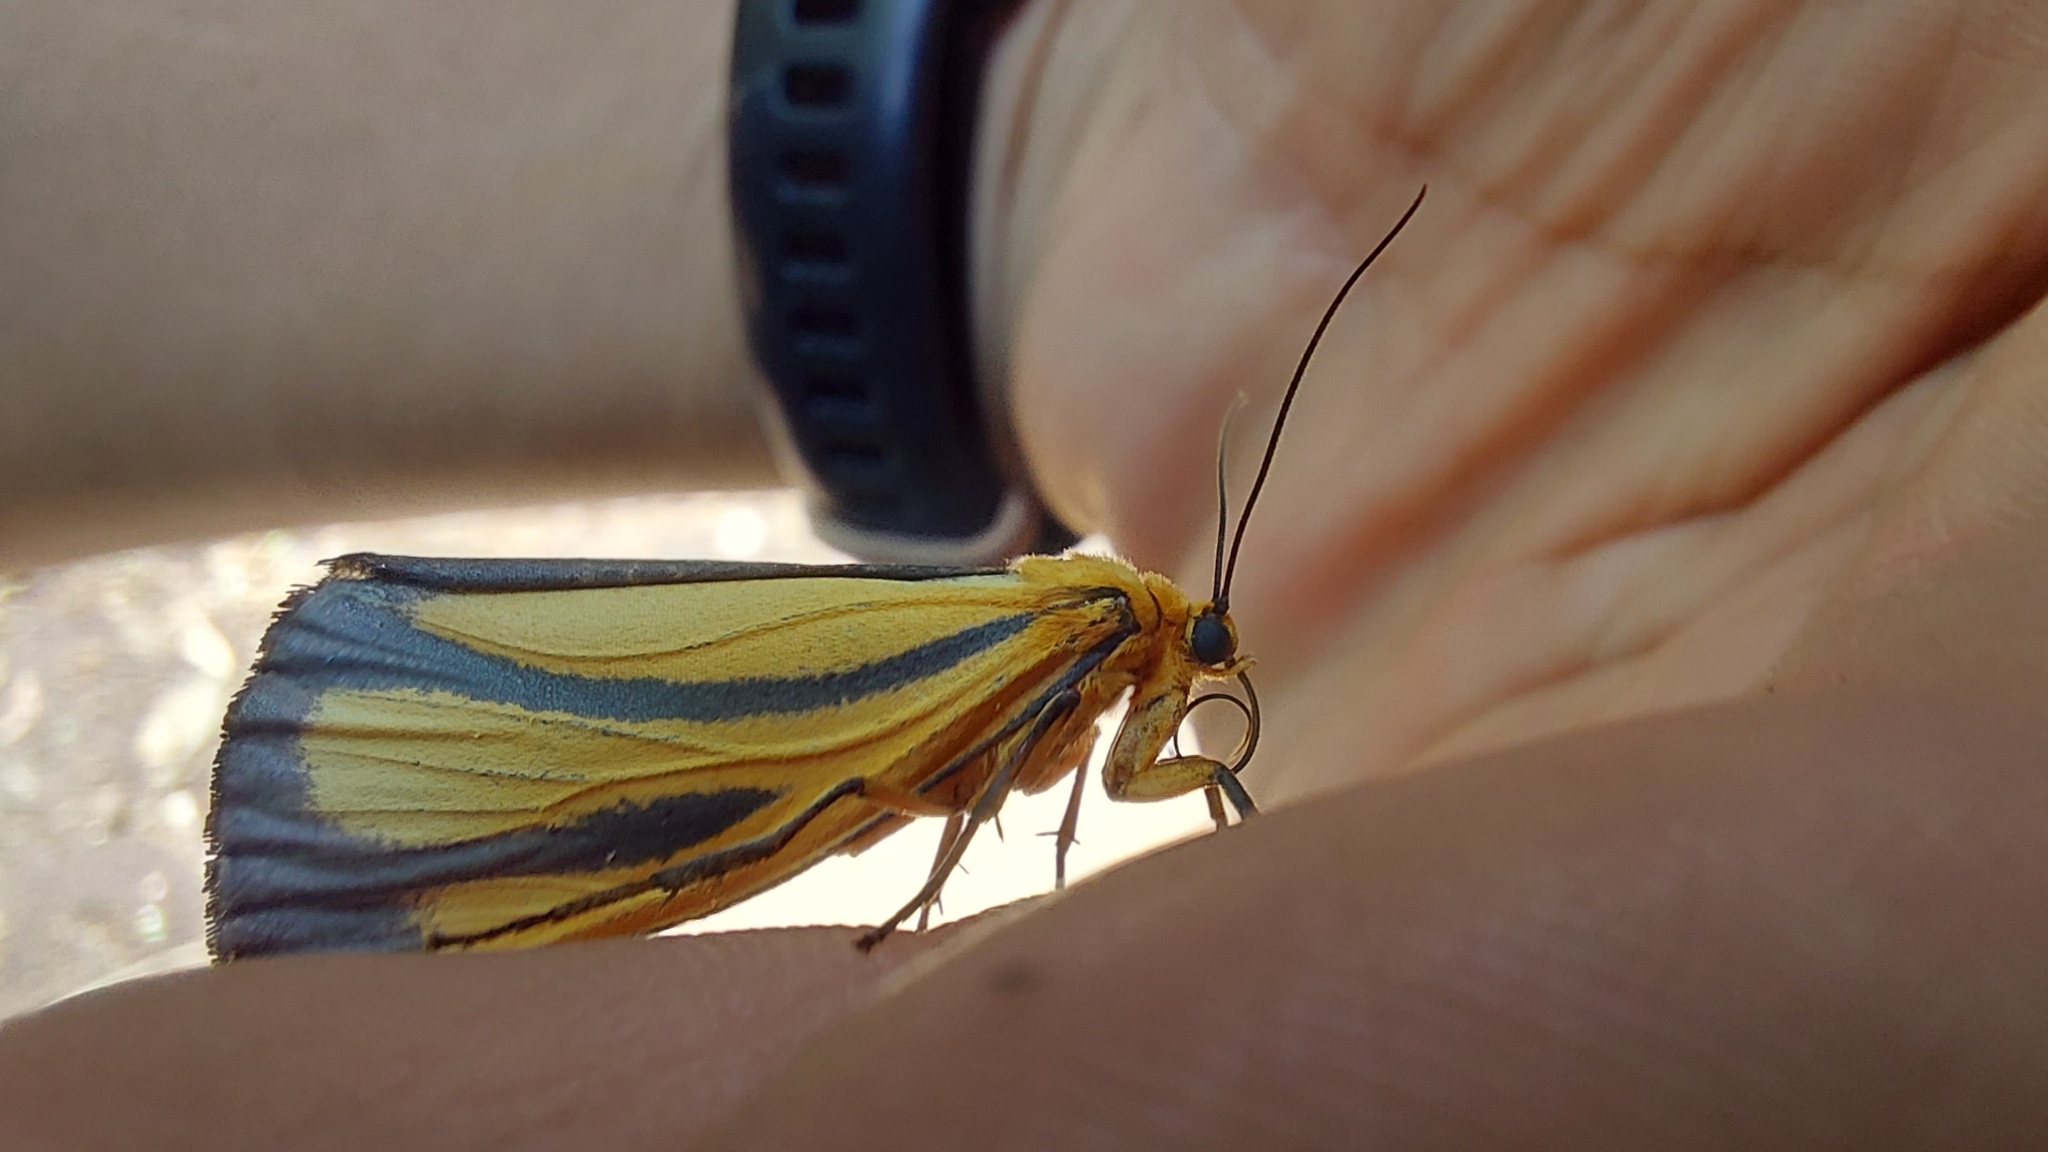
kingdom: Animalia
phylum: Arthropoda
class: Insecta
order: Lepidoptera
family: Erebidae
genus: Eurylomia
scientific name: Eurylomia cordula
